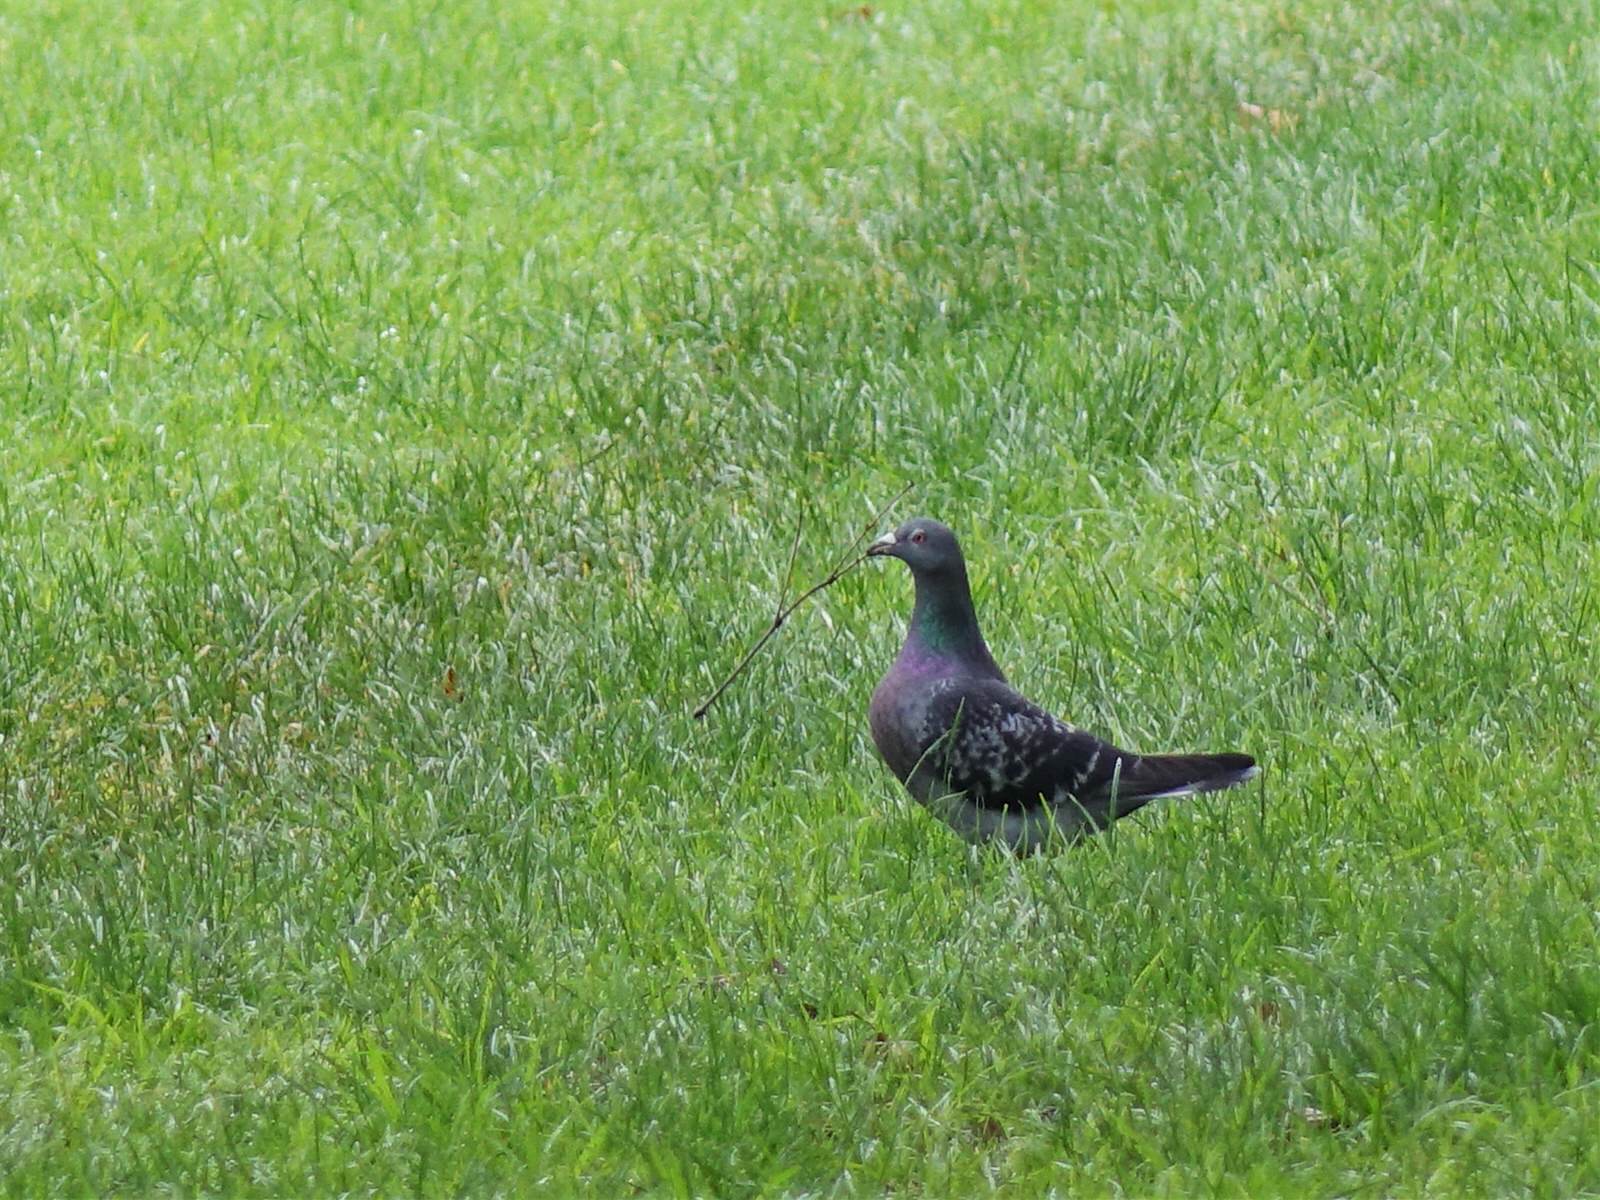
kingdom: Animalia
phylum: Chordata
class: Aves
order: Columbiformes
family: Columbidae
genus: Columba
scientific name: Columba livia
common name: Rock pigeon
